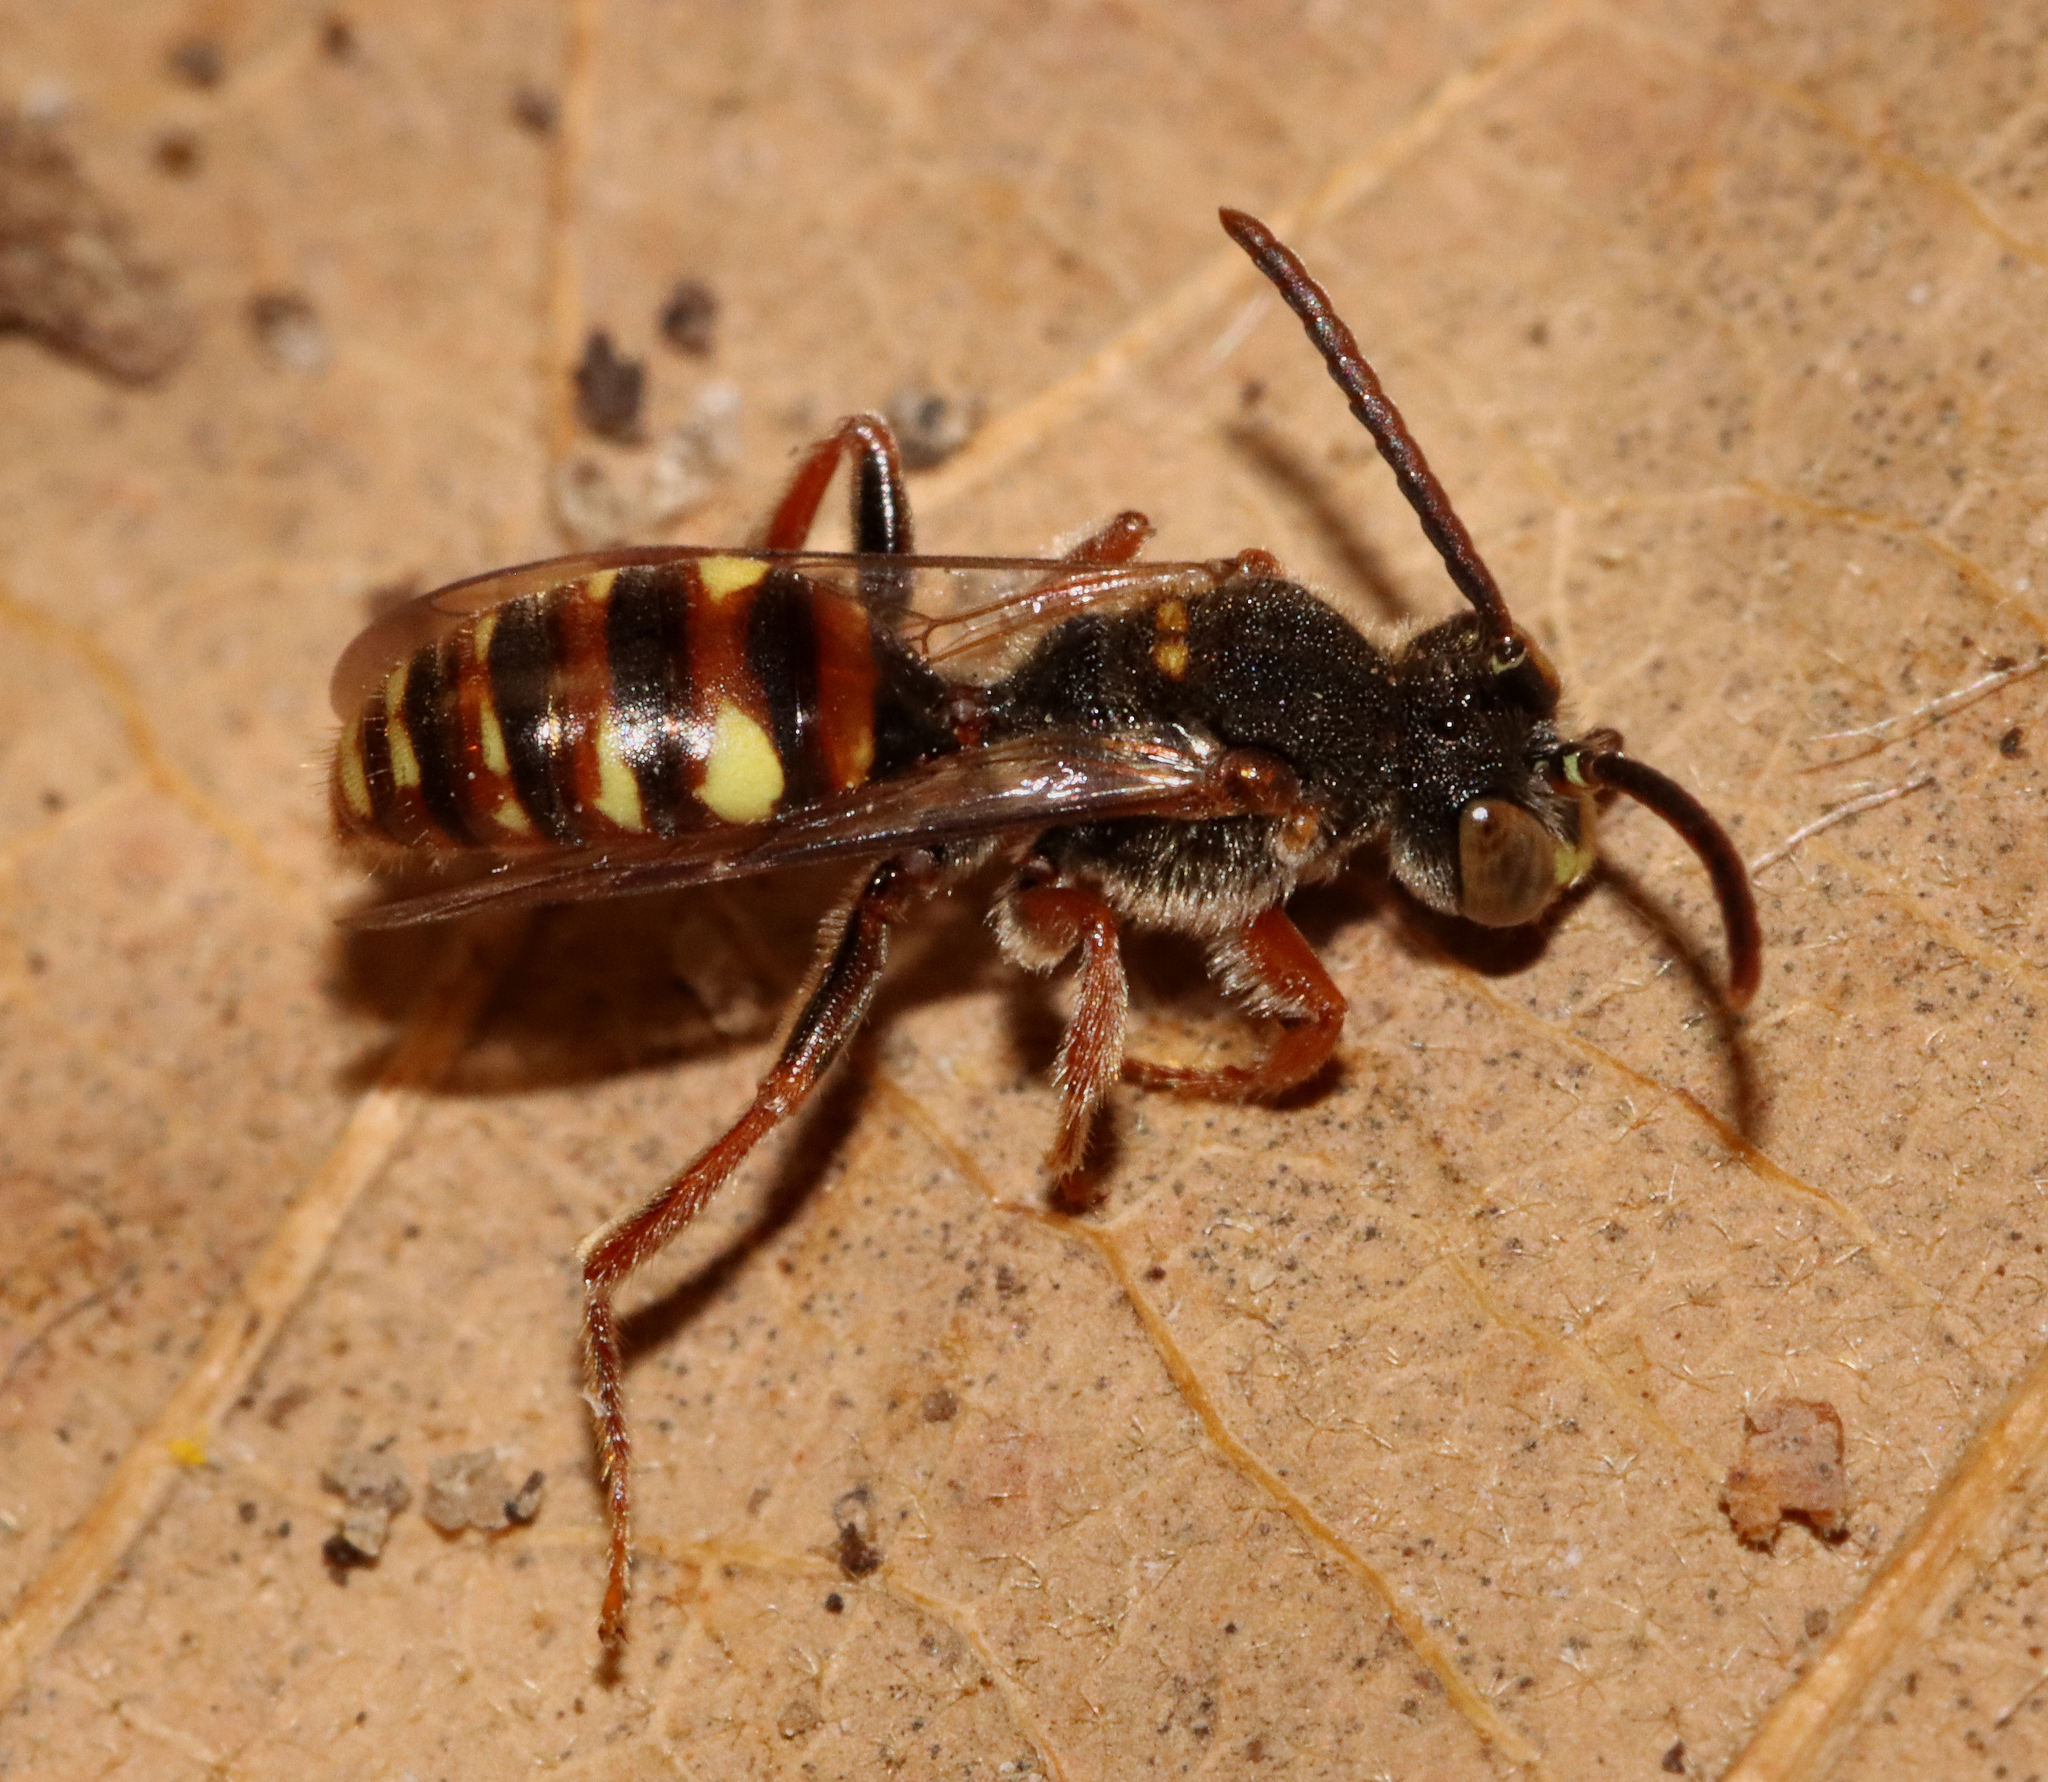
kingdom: Animalia
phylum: Arthropoda
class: Insecta
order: Hymenoptera
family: Apidae
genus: Nomada
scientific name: Nomada
